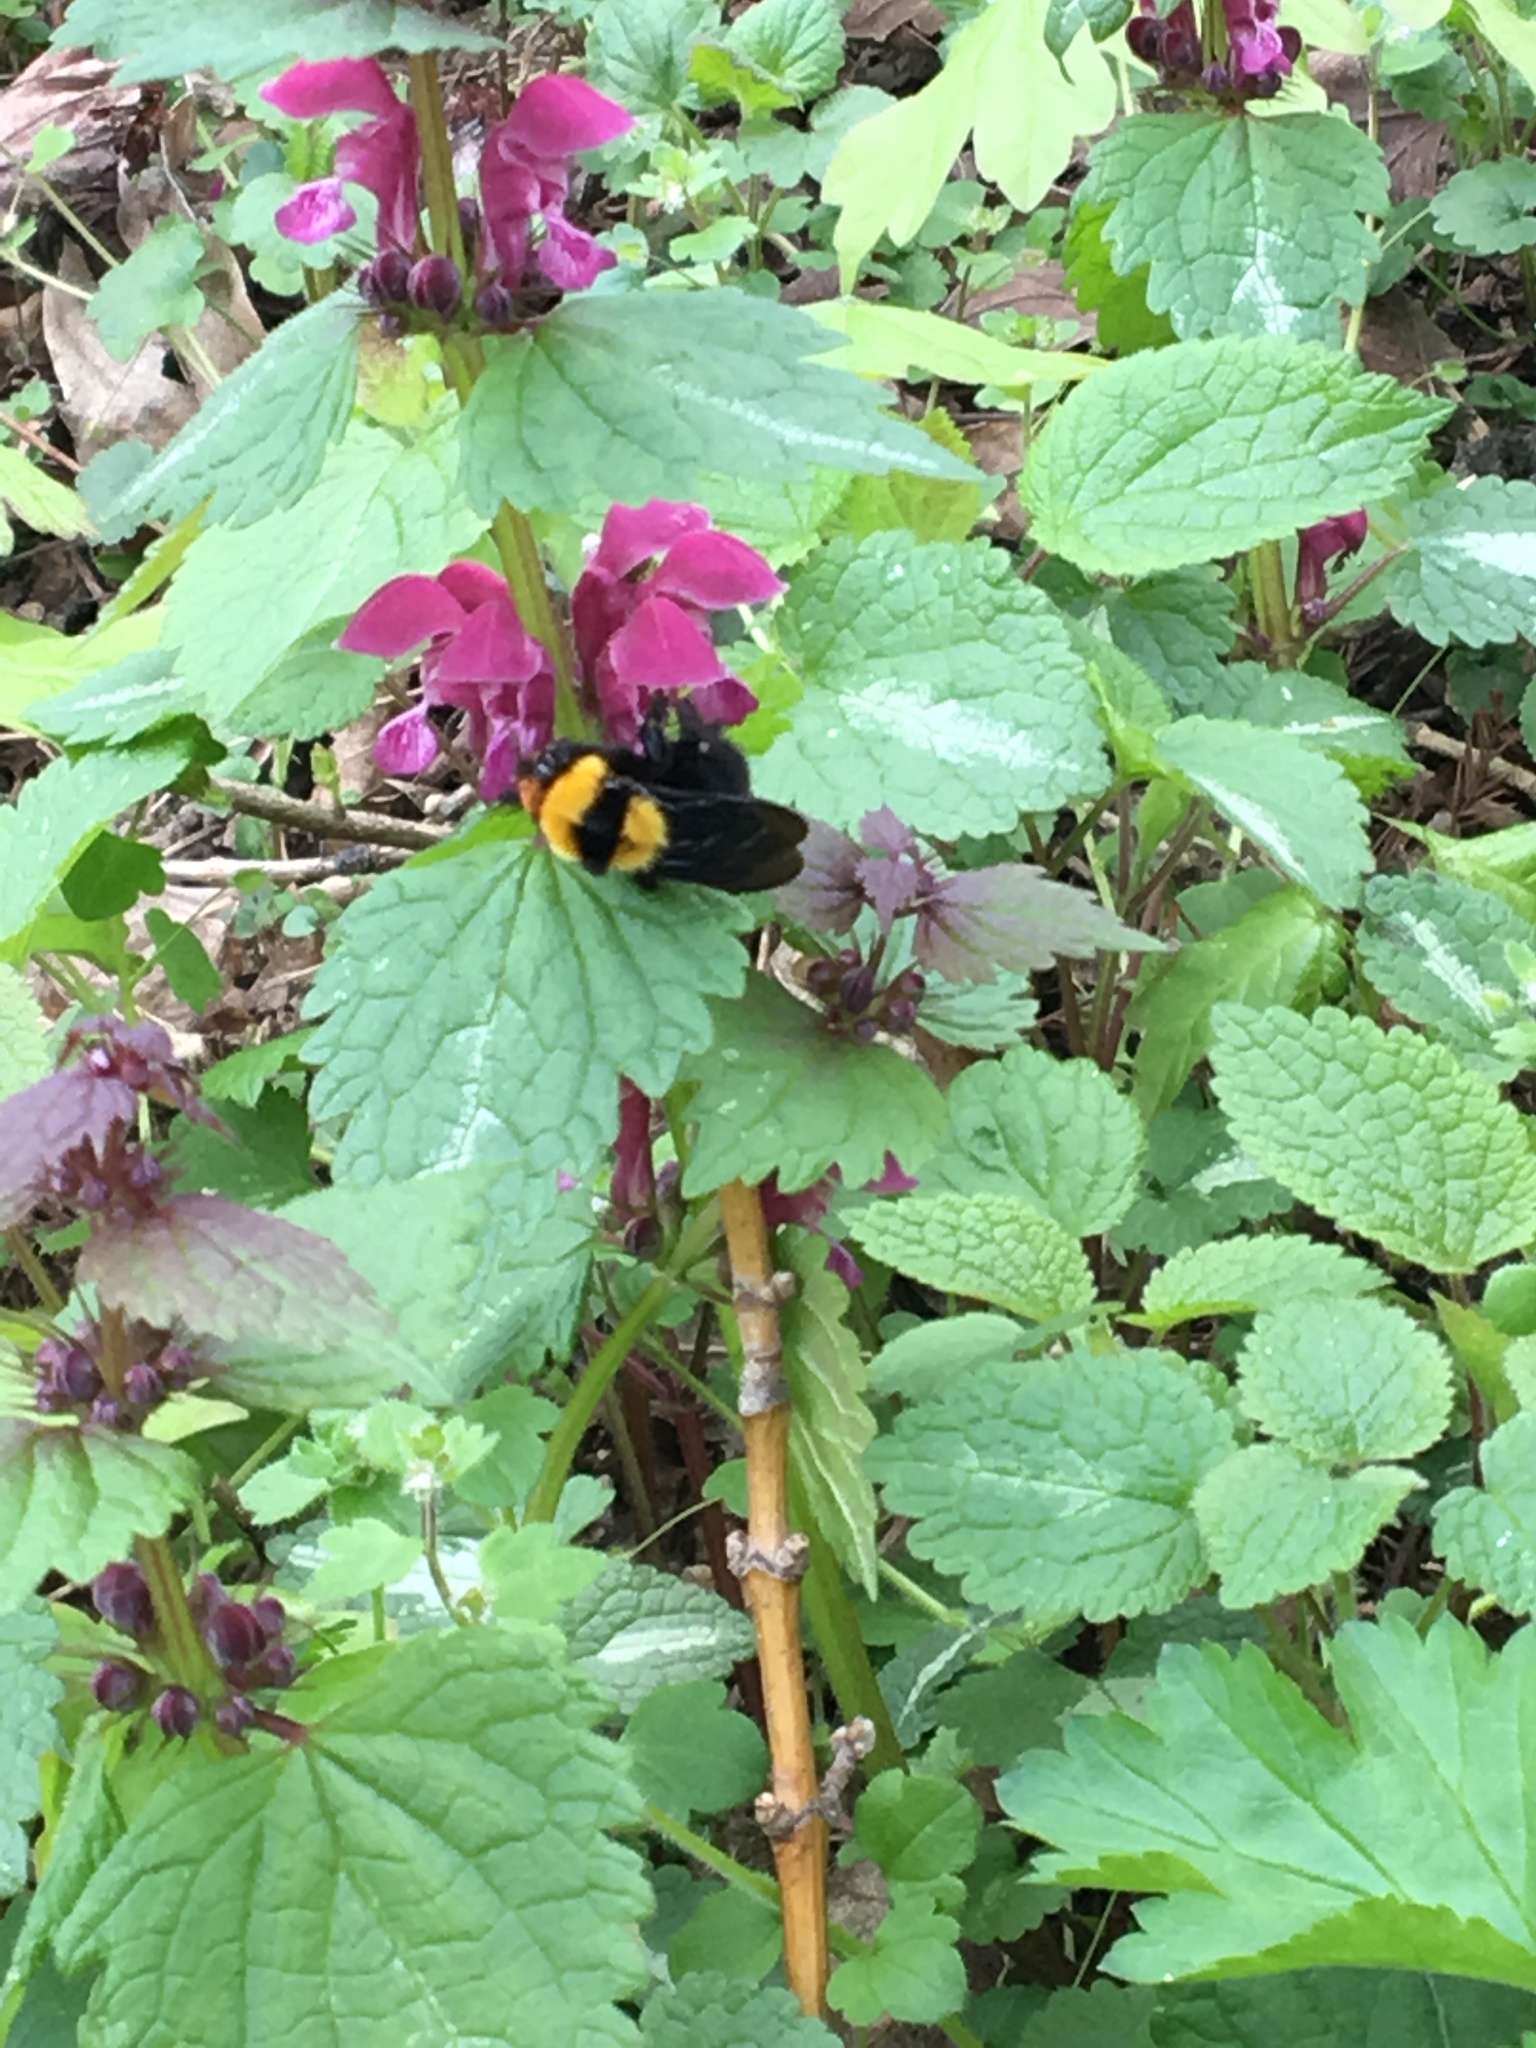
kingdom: Animalia
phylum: Arthropoda
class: Insecta
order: Hymenoptera
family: Apidae
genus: Bombus
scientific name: Bombus argillaceus
